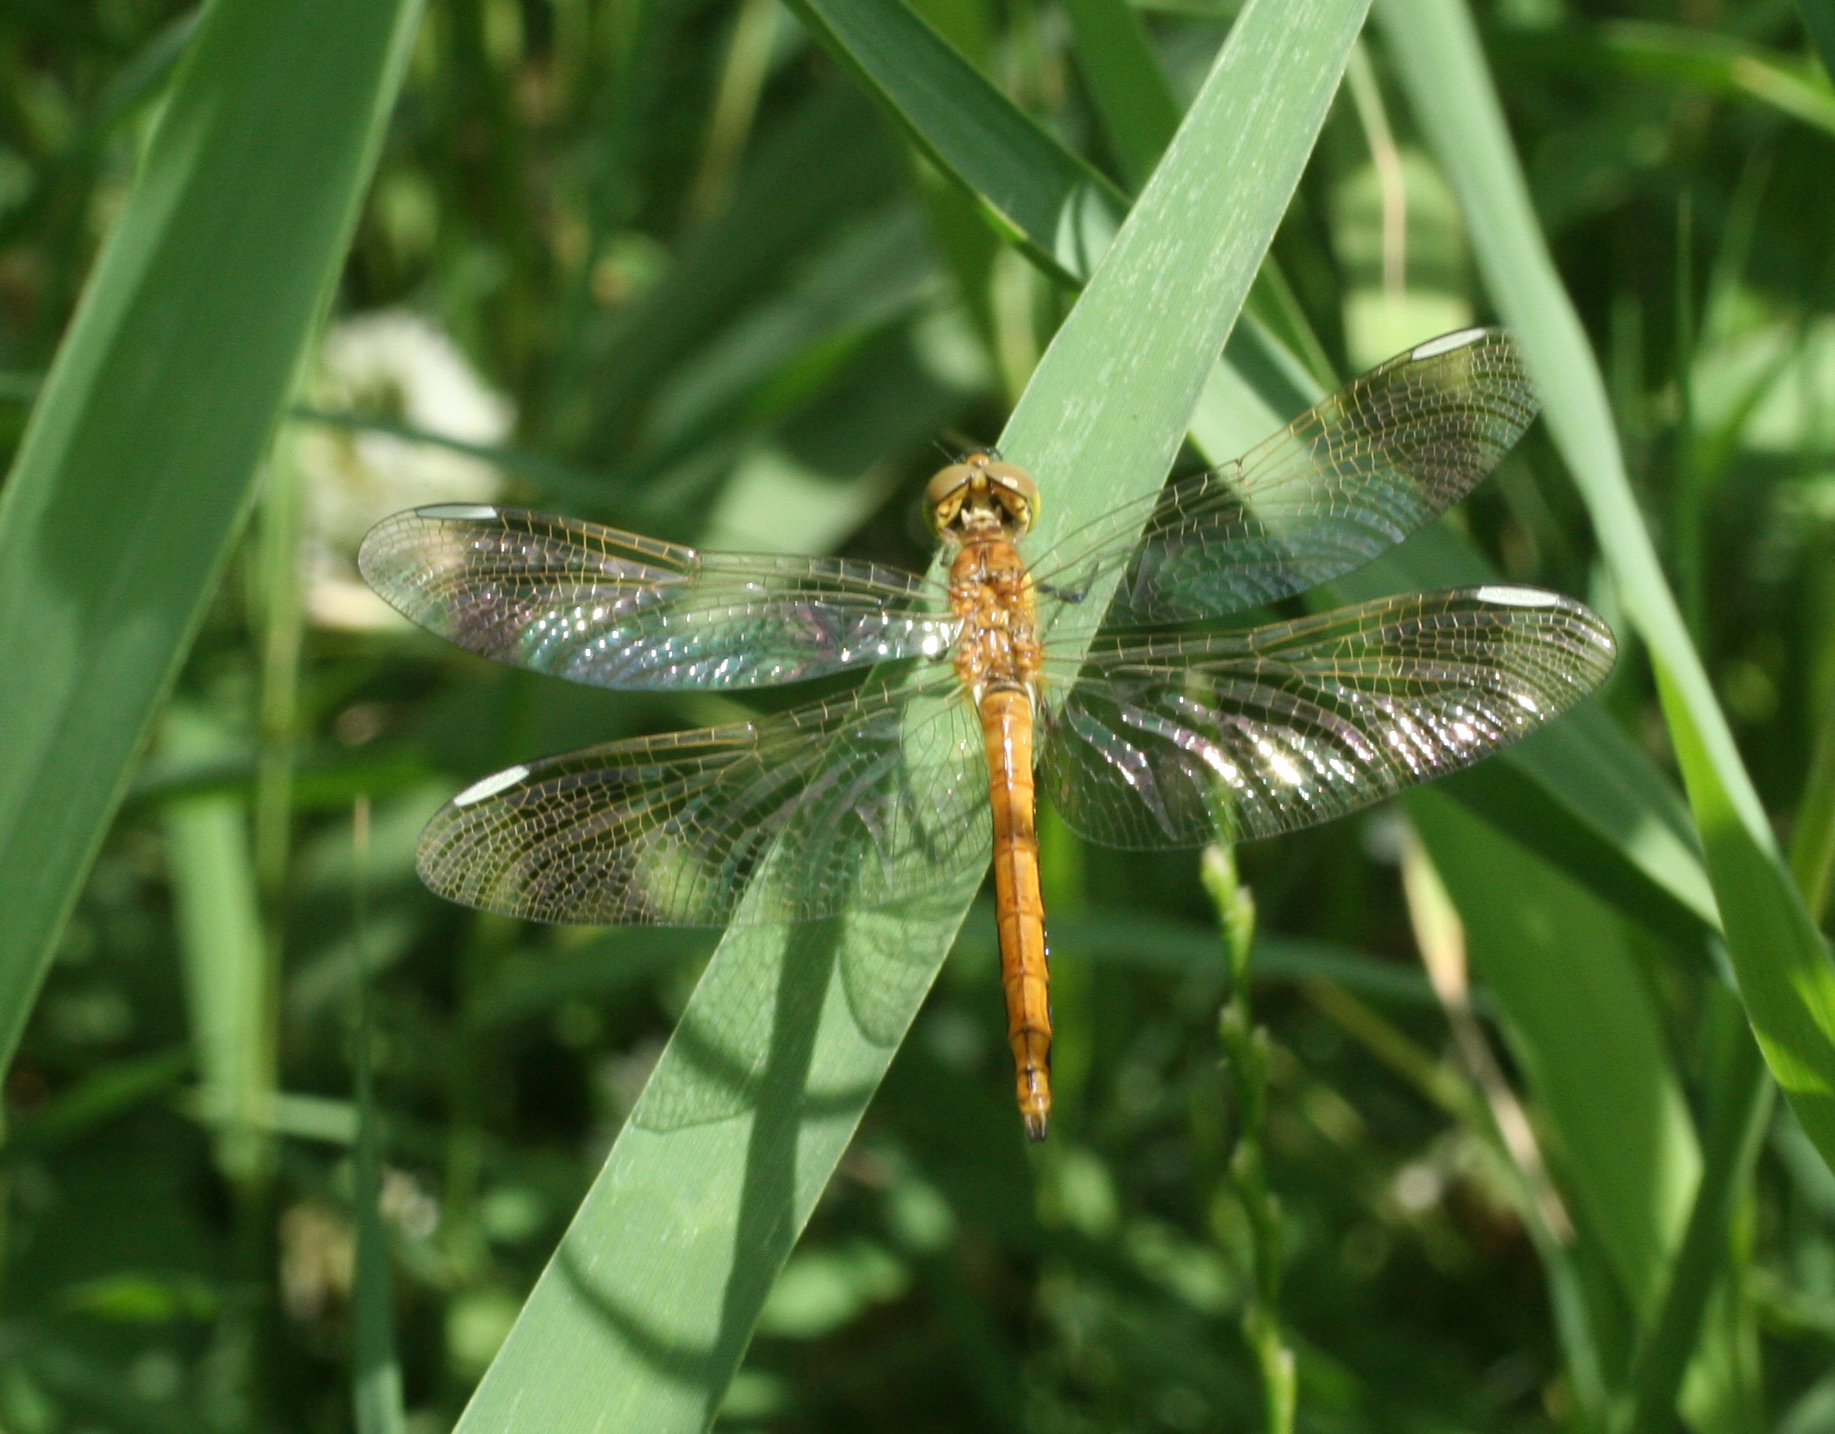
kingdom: Animalia
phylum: Arthropoda
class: Insecta
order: Odonata
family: Libellulidae
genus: Sympetrum
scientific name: Sympetrum pedemontanum
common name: Banded darter
